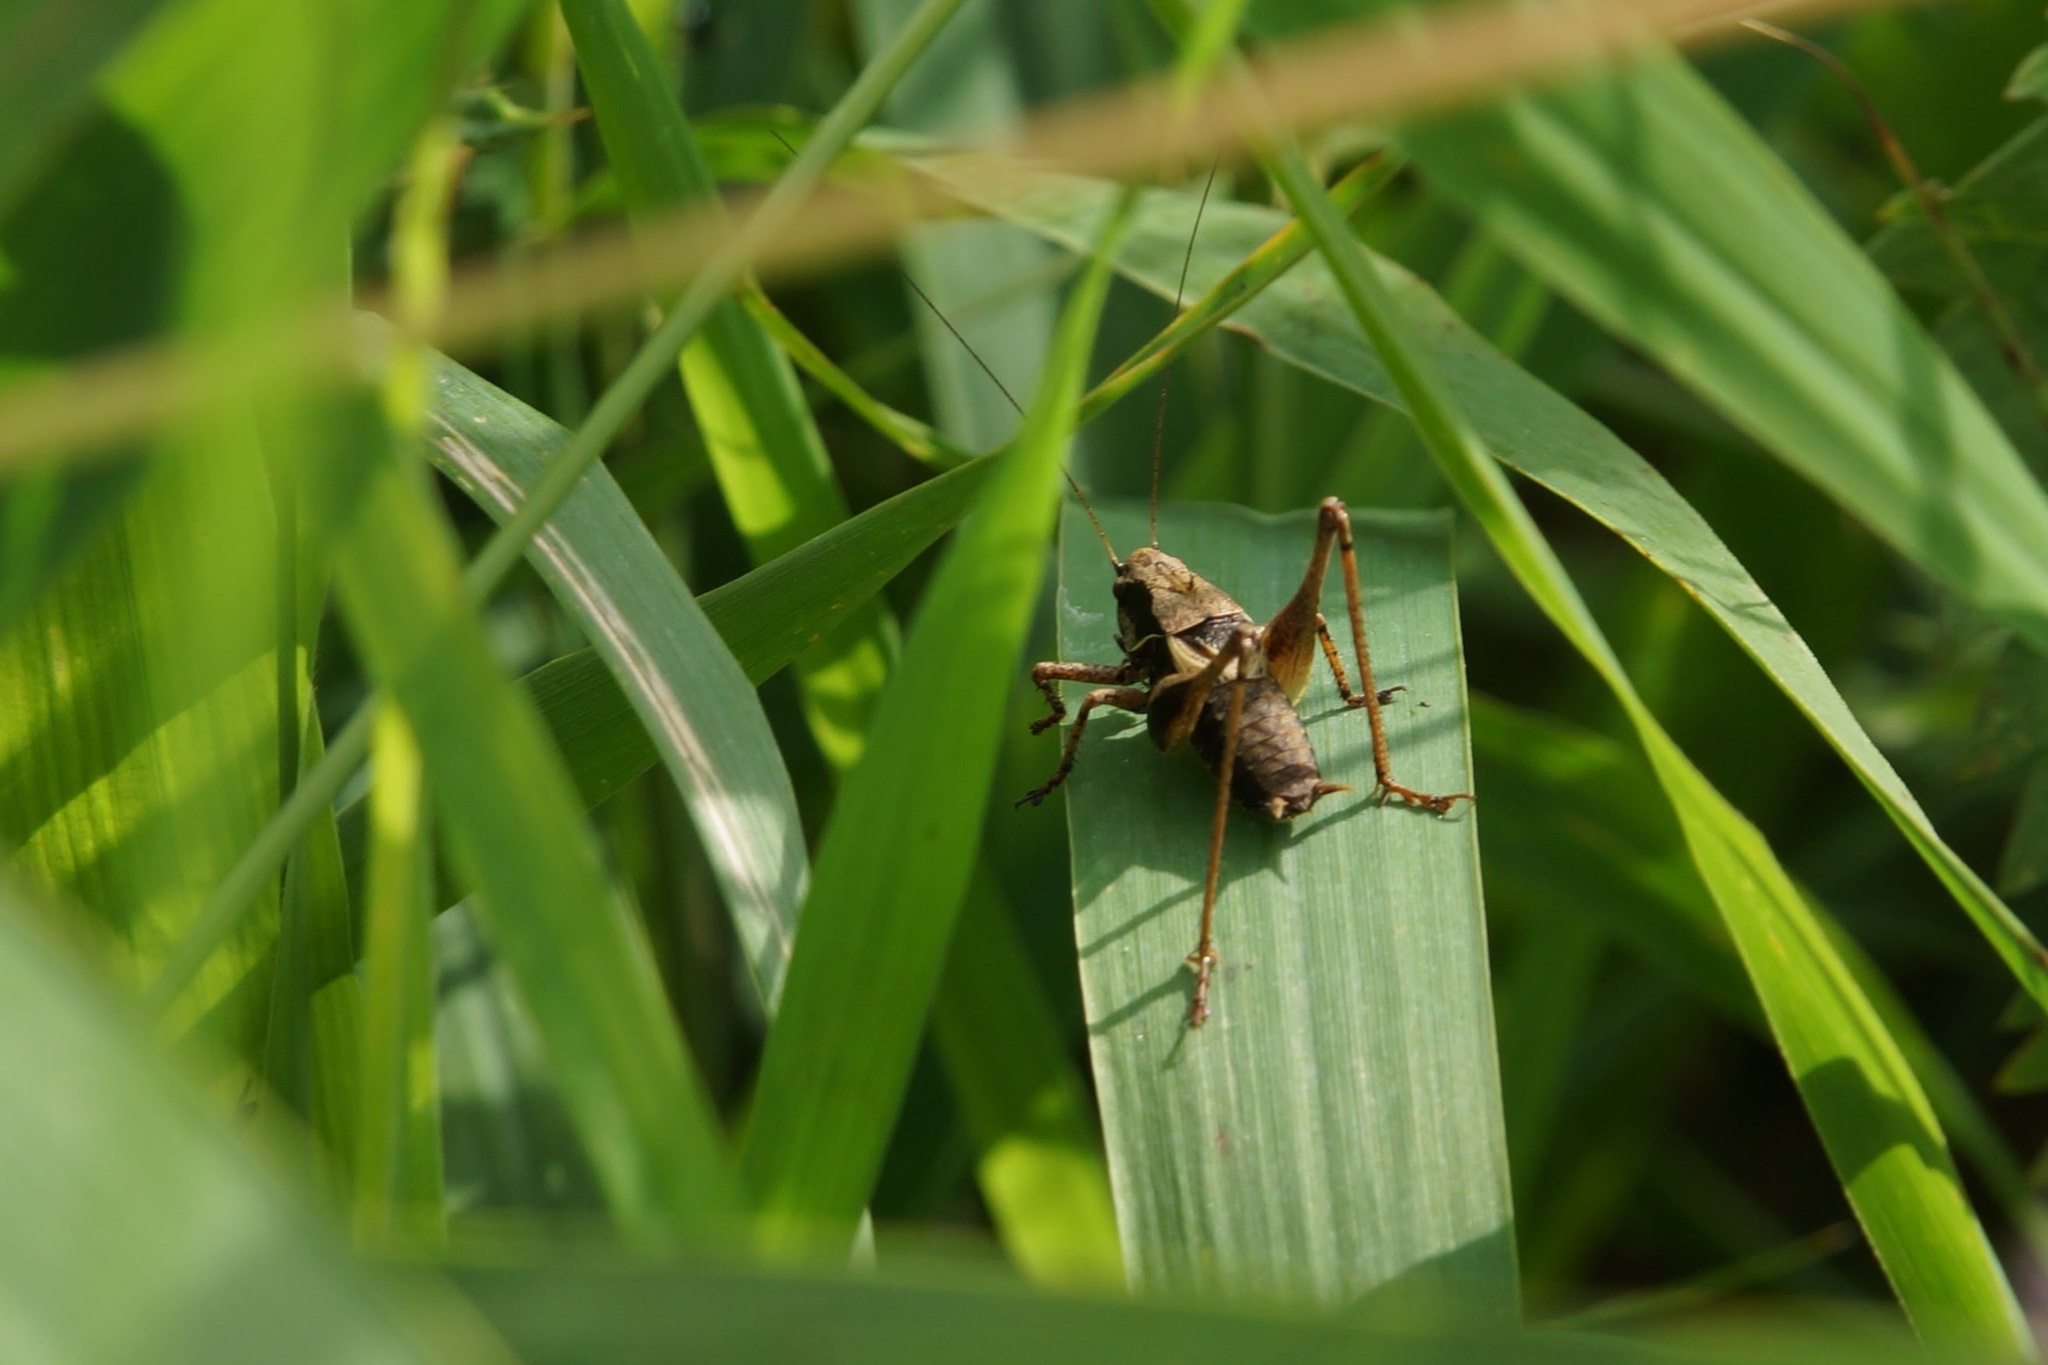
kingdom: Animalia
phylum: Arthropoda
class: Insecta
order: Orthoptera
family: Tettigoniidae
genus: Pholidoptera
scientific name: Pholidoptera griseoaptera
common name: Dark bush-cricket
